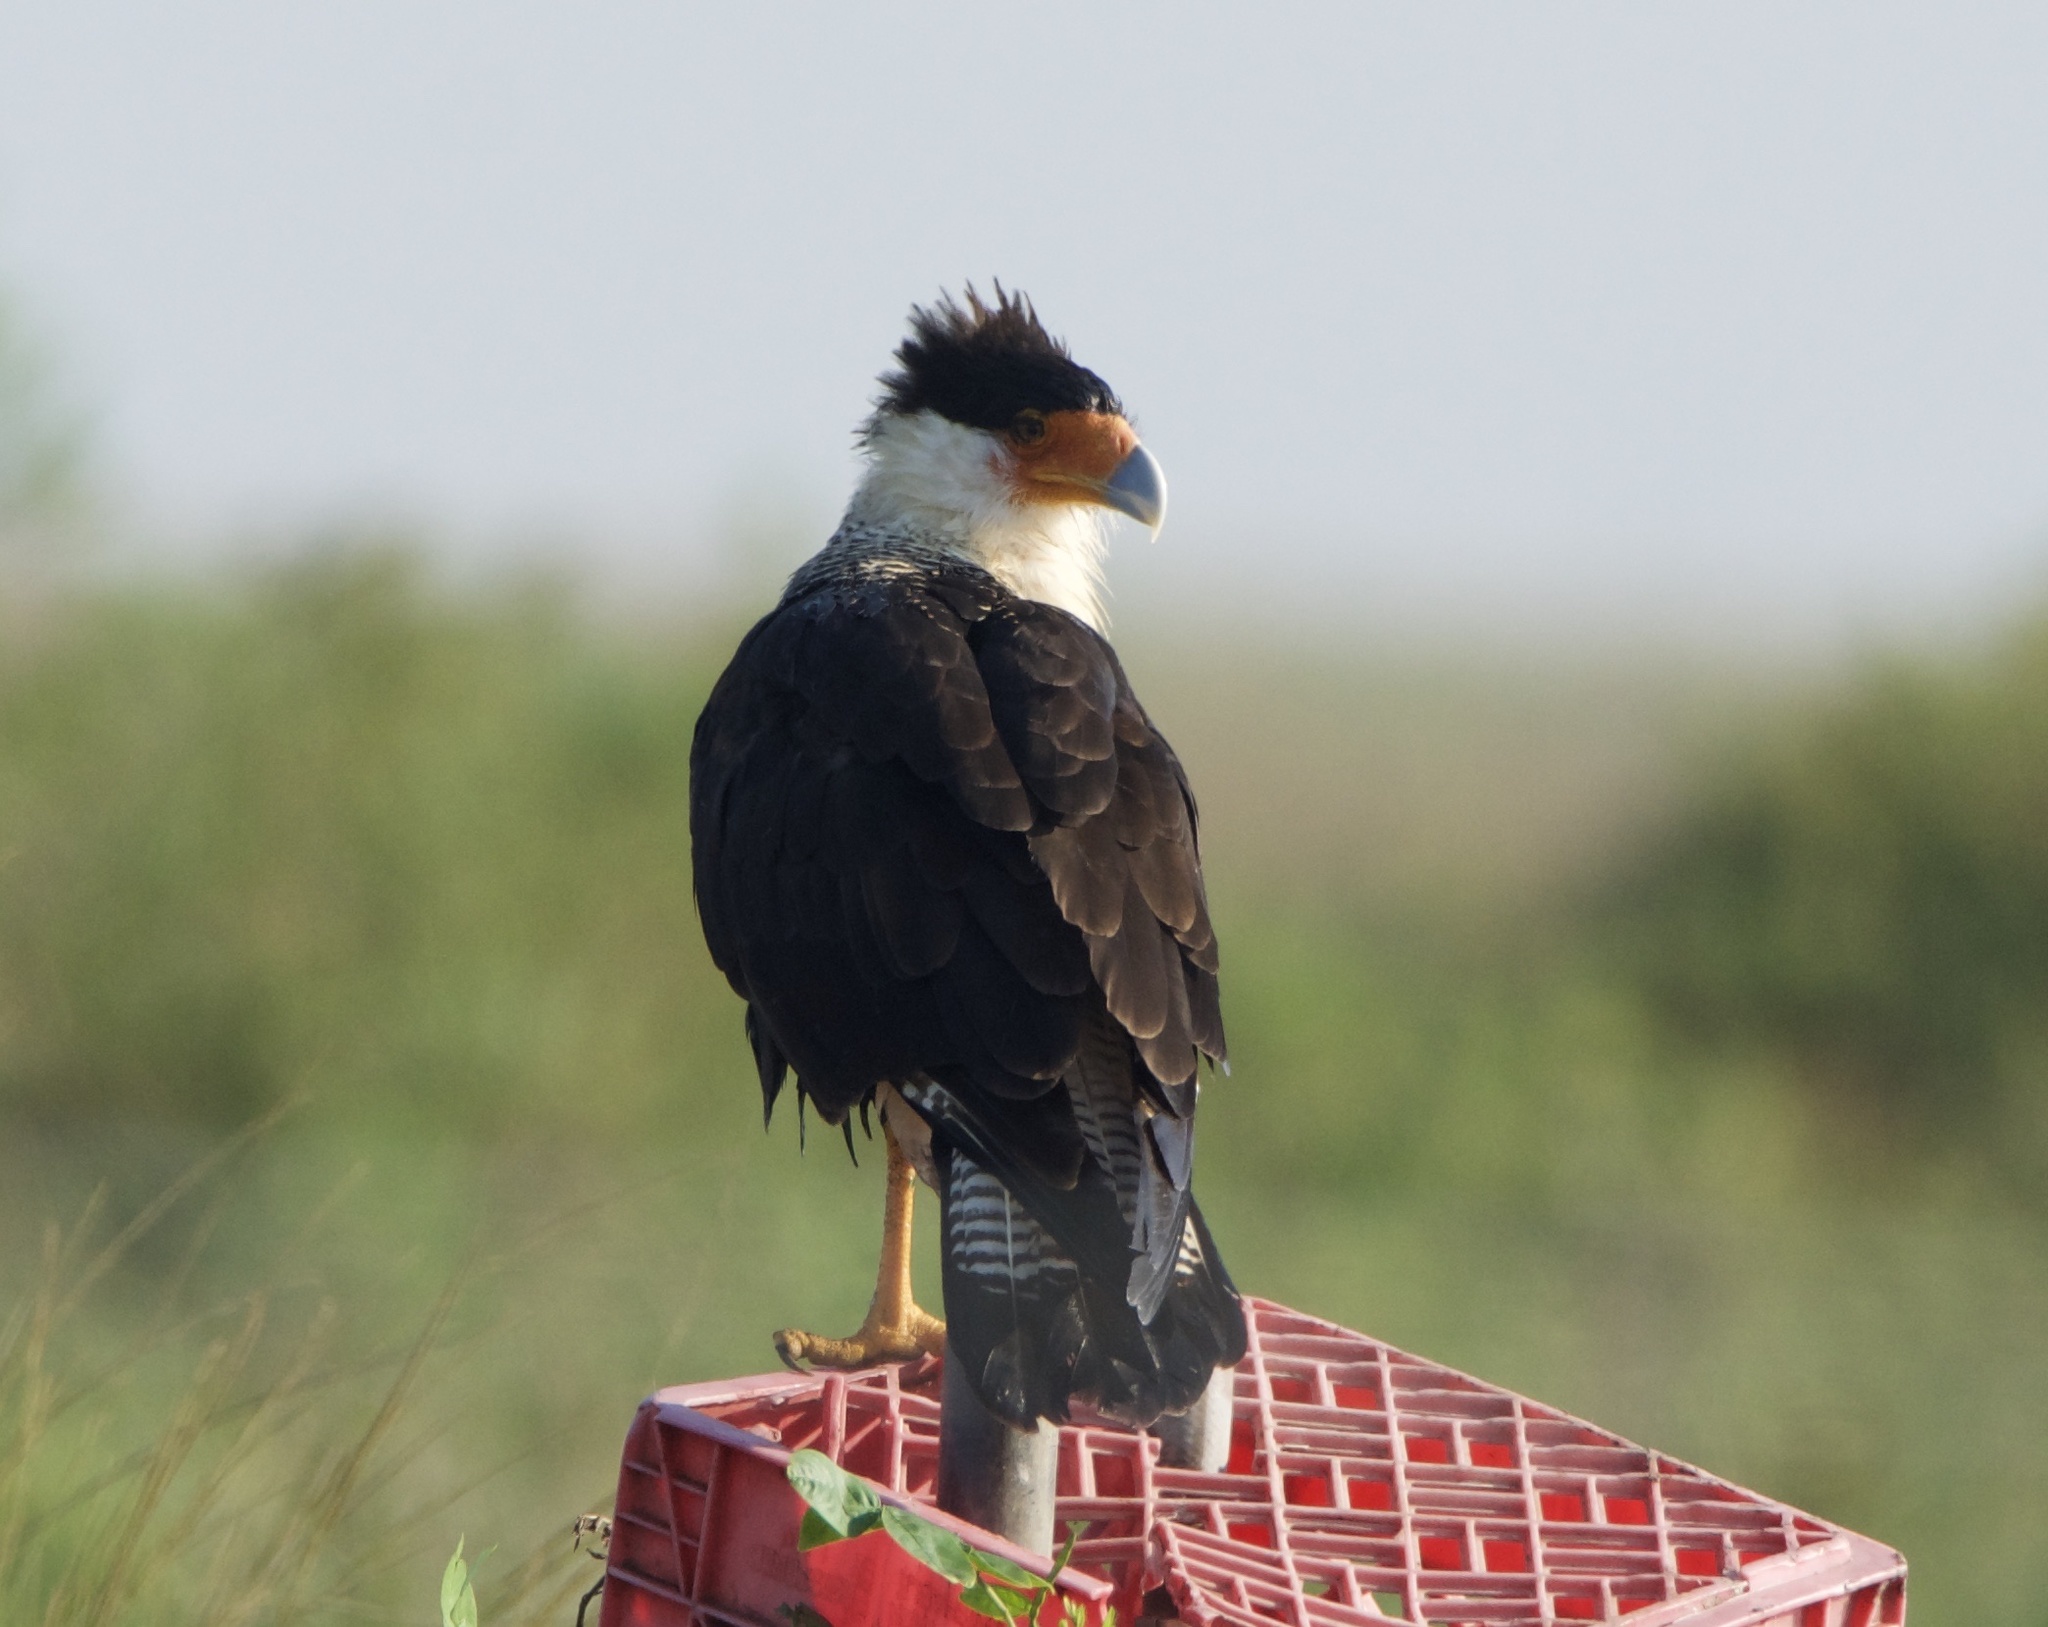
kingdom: Animalia
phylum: Chordata
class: Aves
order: Falconiformes
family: Falconidae
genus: Caracara
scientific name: Caracara plancus
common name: Southern caracara
